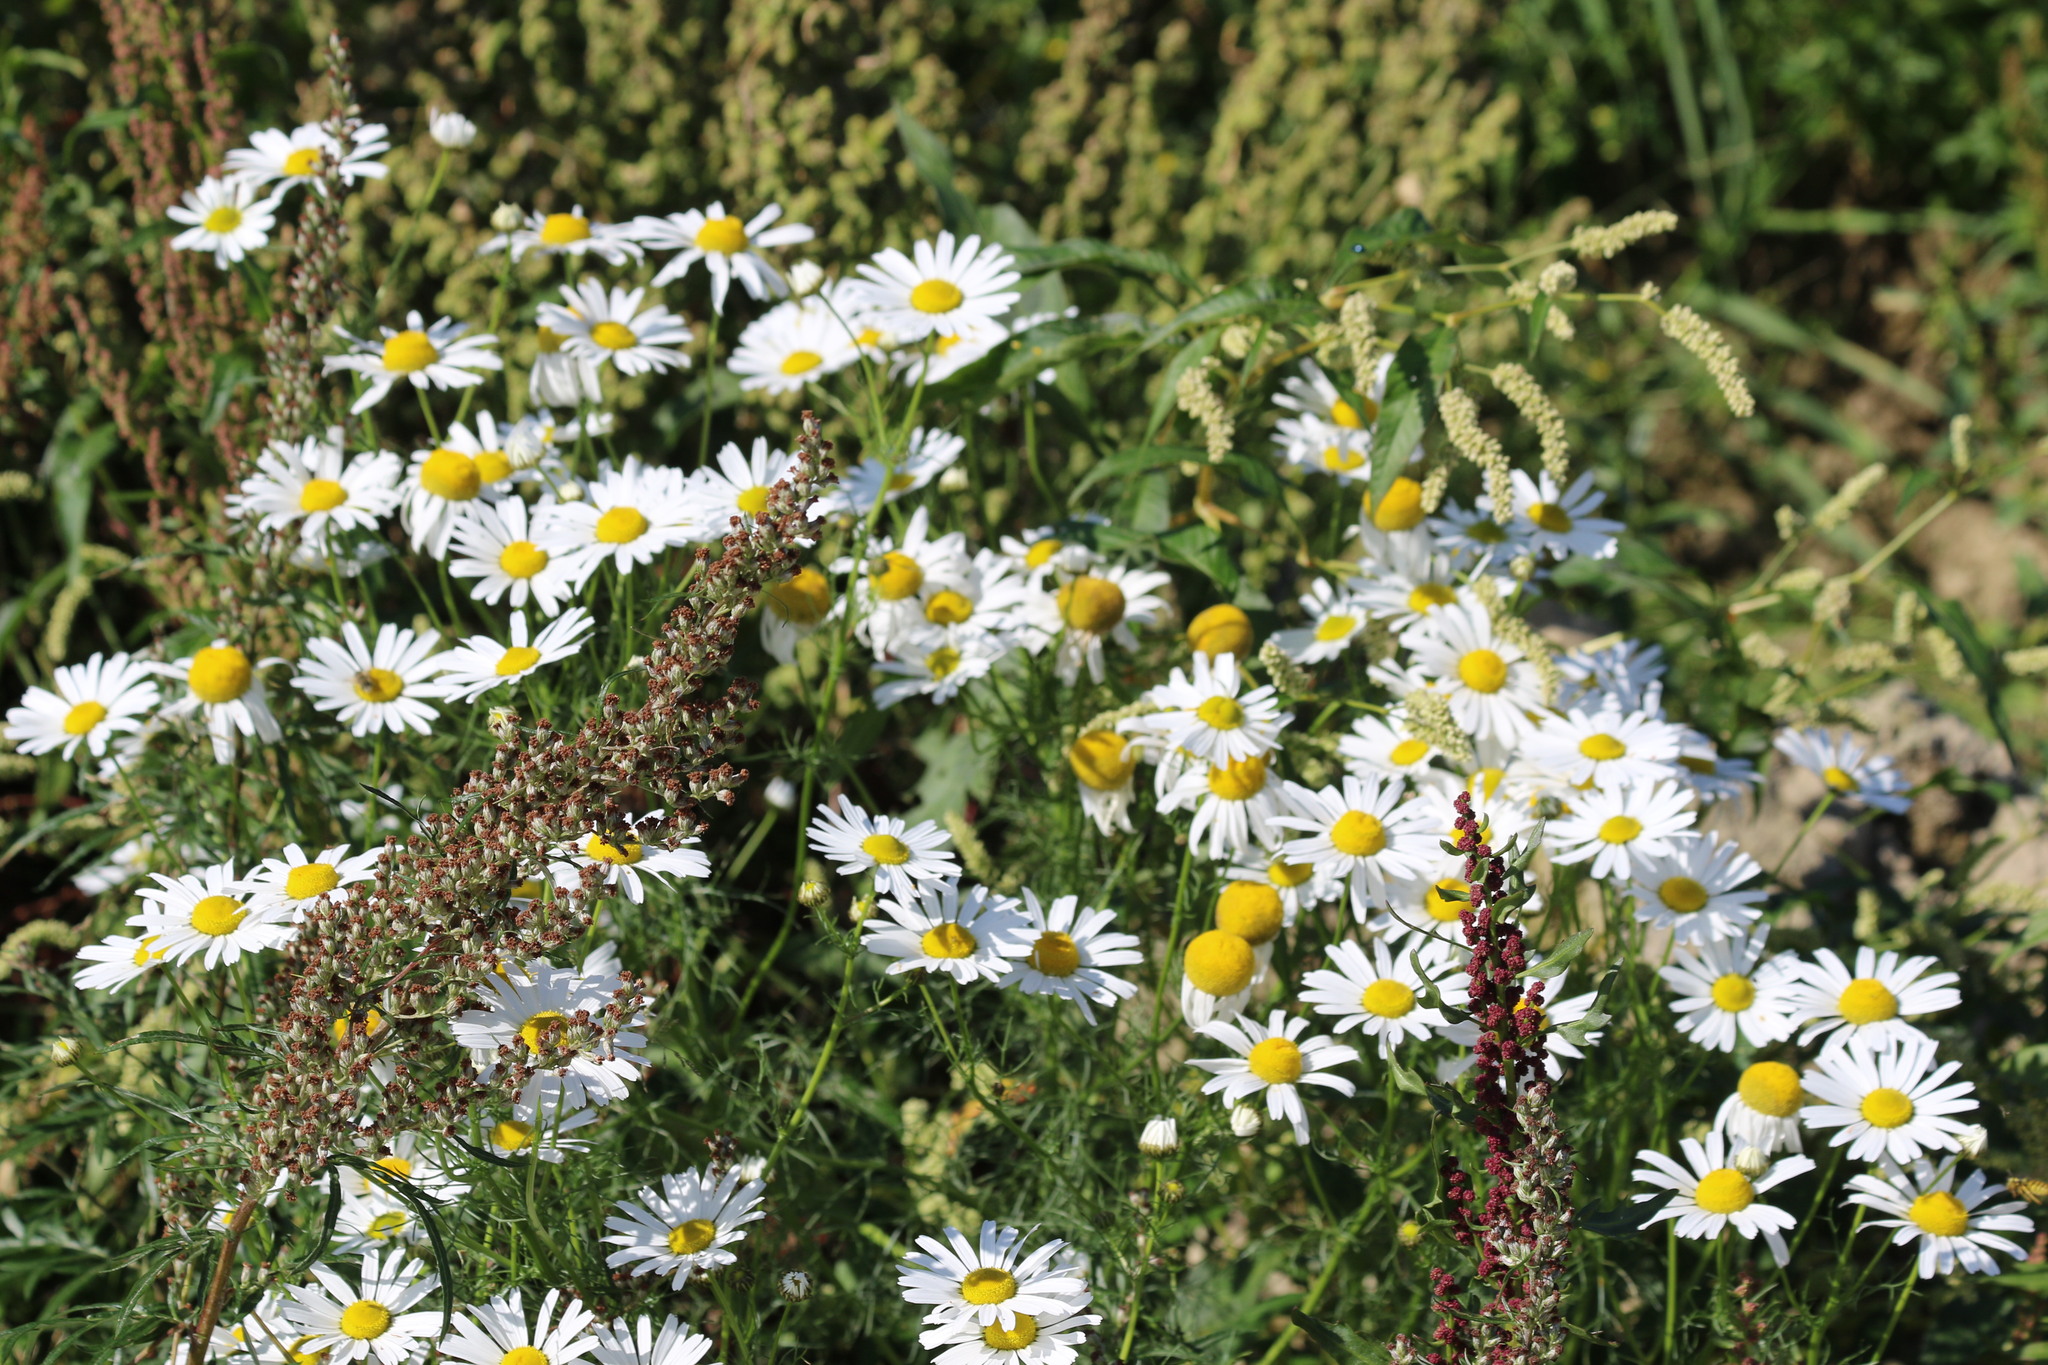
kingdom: Plantae
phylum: Tracheophyta
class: Magnoliopsida
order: Asterales
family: Asteraceae
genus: Tripleurospermum
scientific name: Tripleurospermum inodorum
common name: Scentless mayweed
